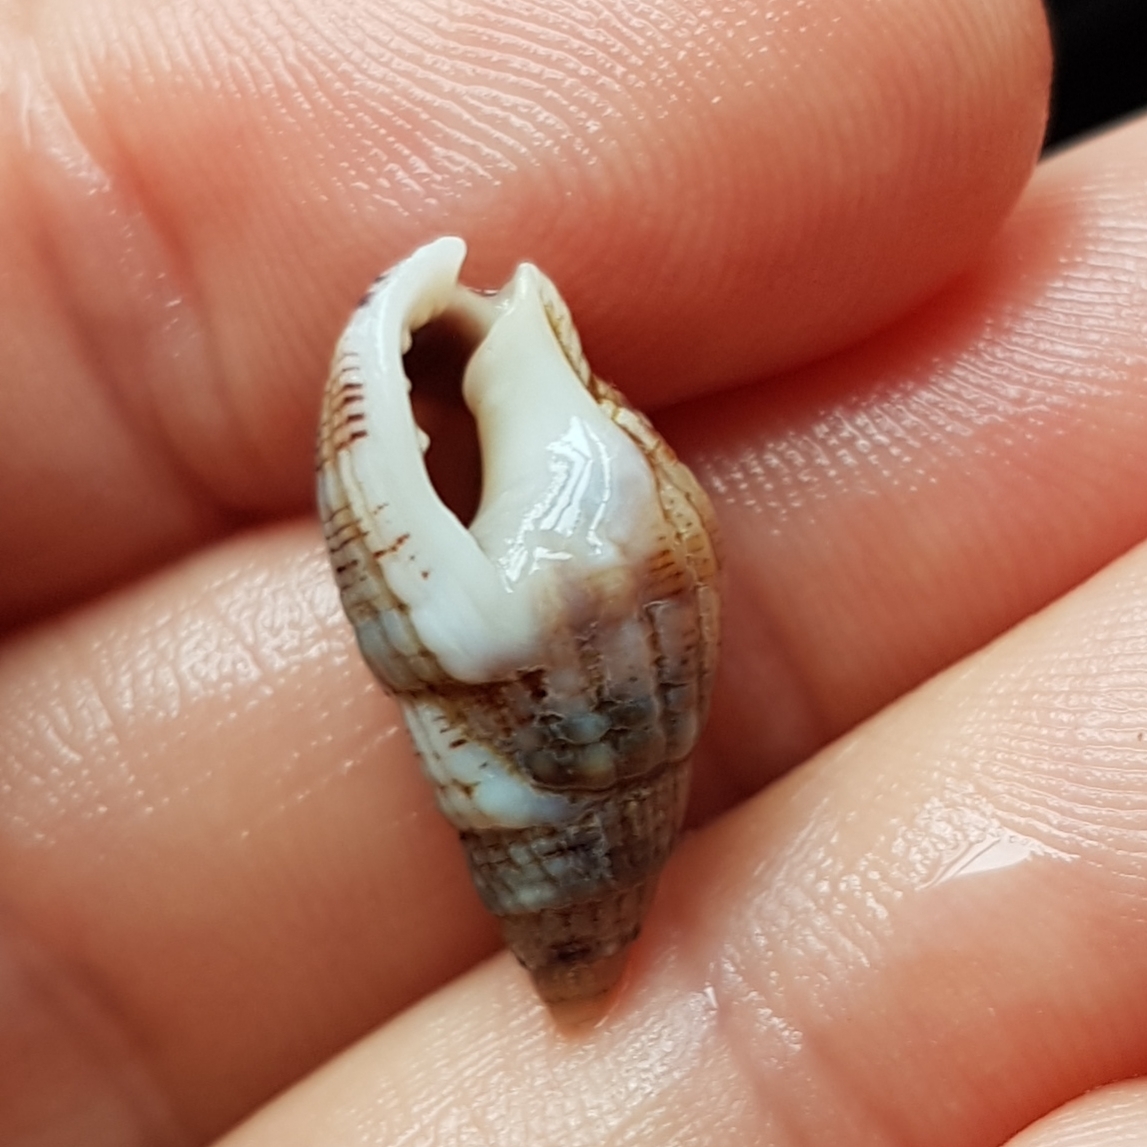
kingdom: Animalia
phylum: Mollusca
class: Gastropoda
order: Neogastropoda
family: Nassariidae
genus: Tritia
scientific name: Tritia reticulata
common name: Netted dog whelk
